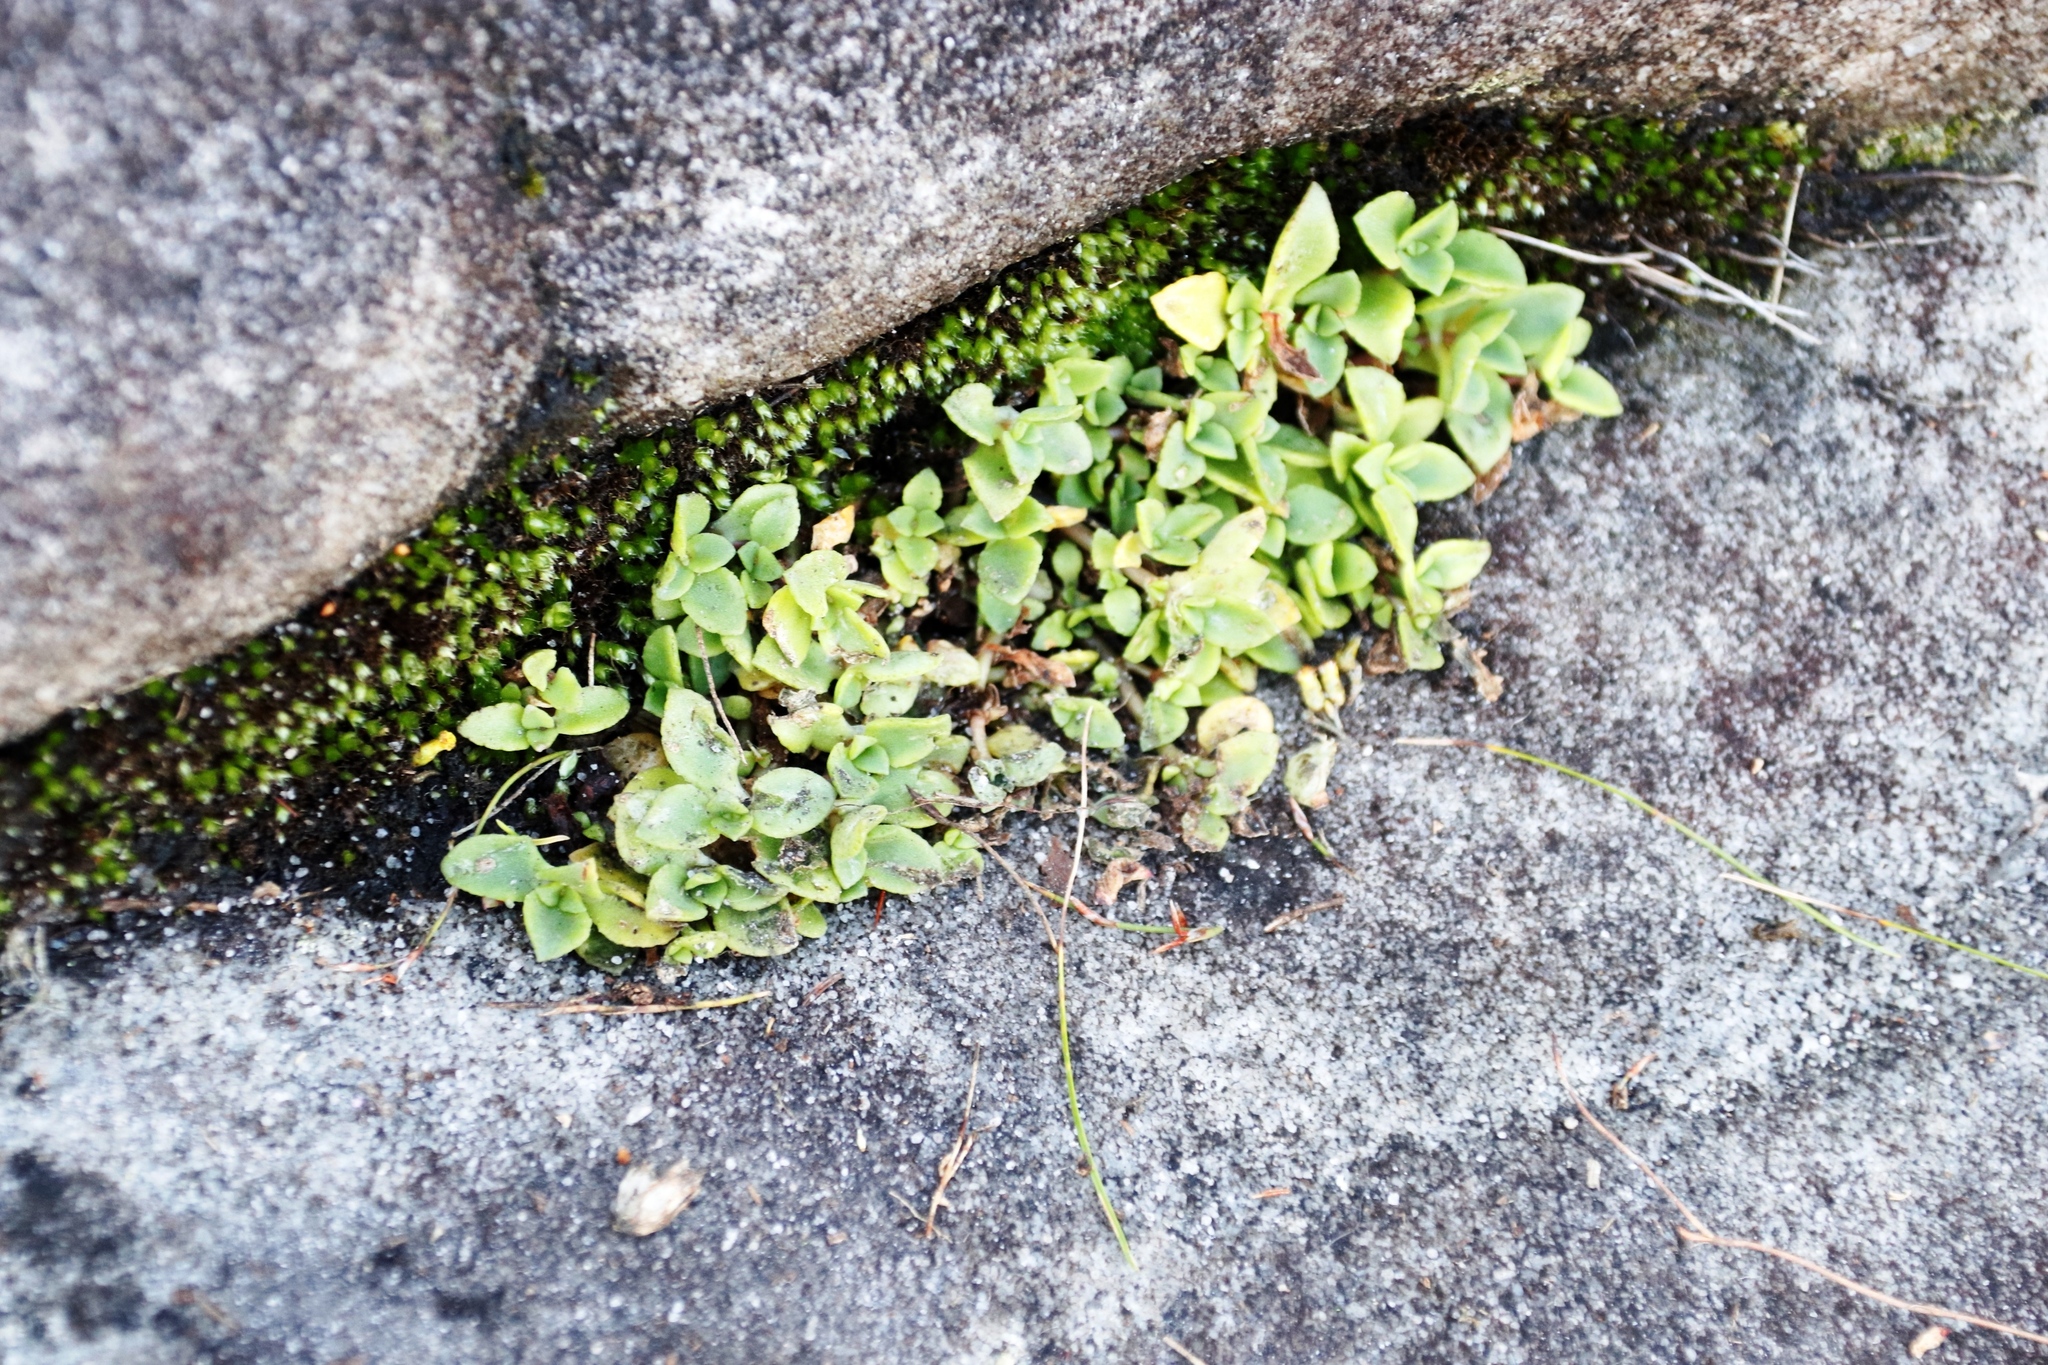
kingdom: Plantae
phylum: Tracheophyta
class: Magnoliopsida
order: Saxifragales
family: Crassulaceae
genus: Crassula
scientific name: Crassula pellucida
